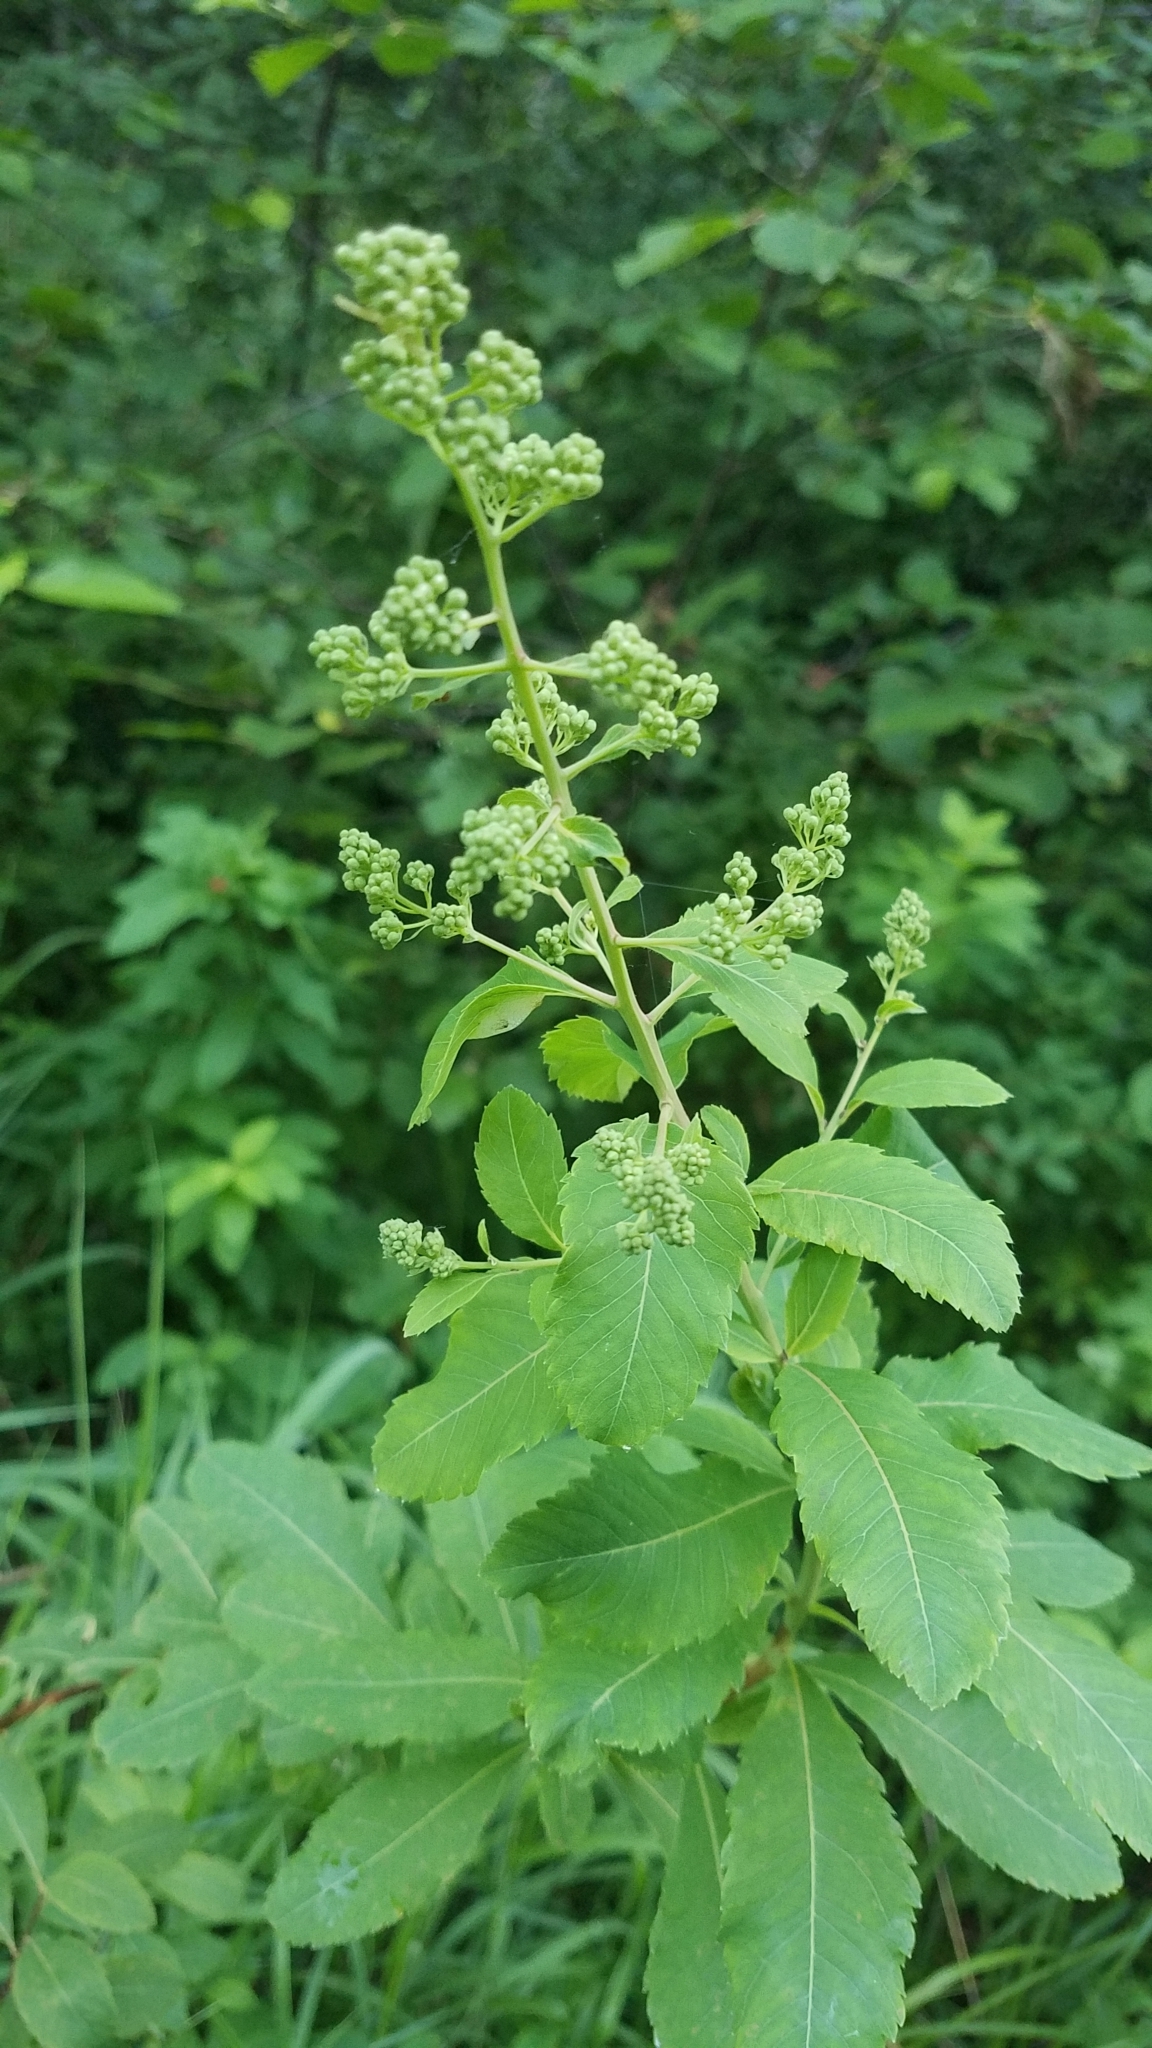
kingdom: Plantae
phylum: Tracheophyta
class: Magnoliopsida
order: Rosales
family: Rosaceae
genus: Spiraea
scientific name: Spiraea alba
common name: Pale bridewort
